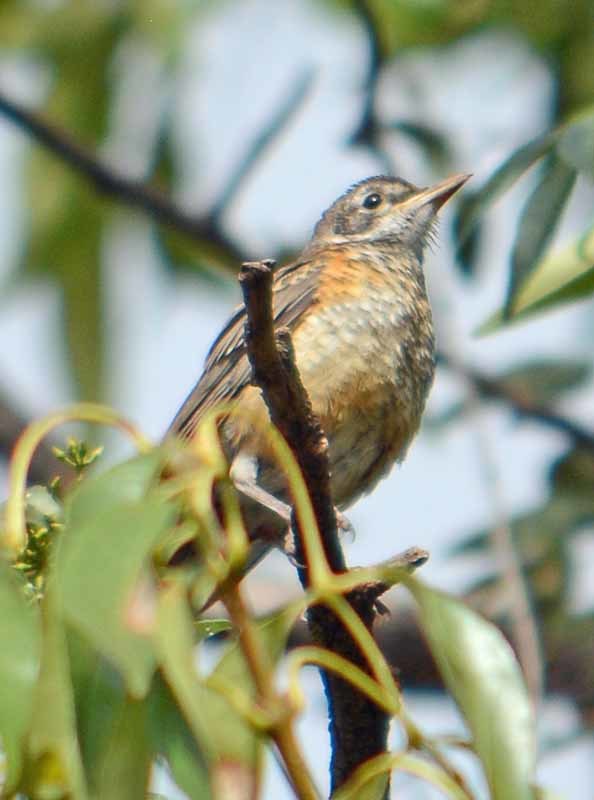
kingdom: Animalia
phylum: Chordata
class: Aves
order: Passeriformes
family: Turdidae
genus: Turdus
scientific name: Turdus migratorius
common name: American robin
